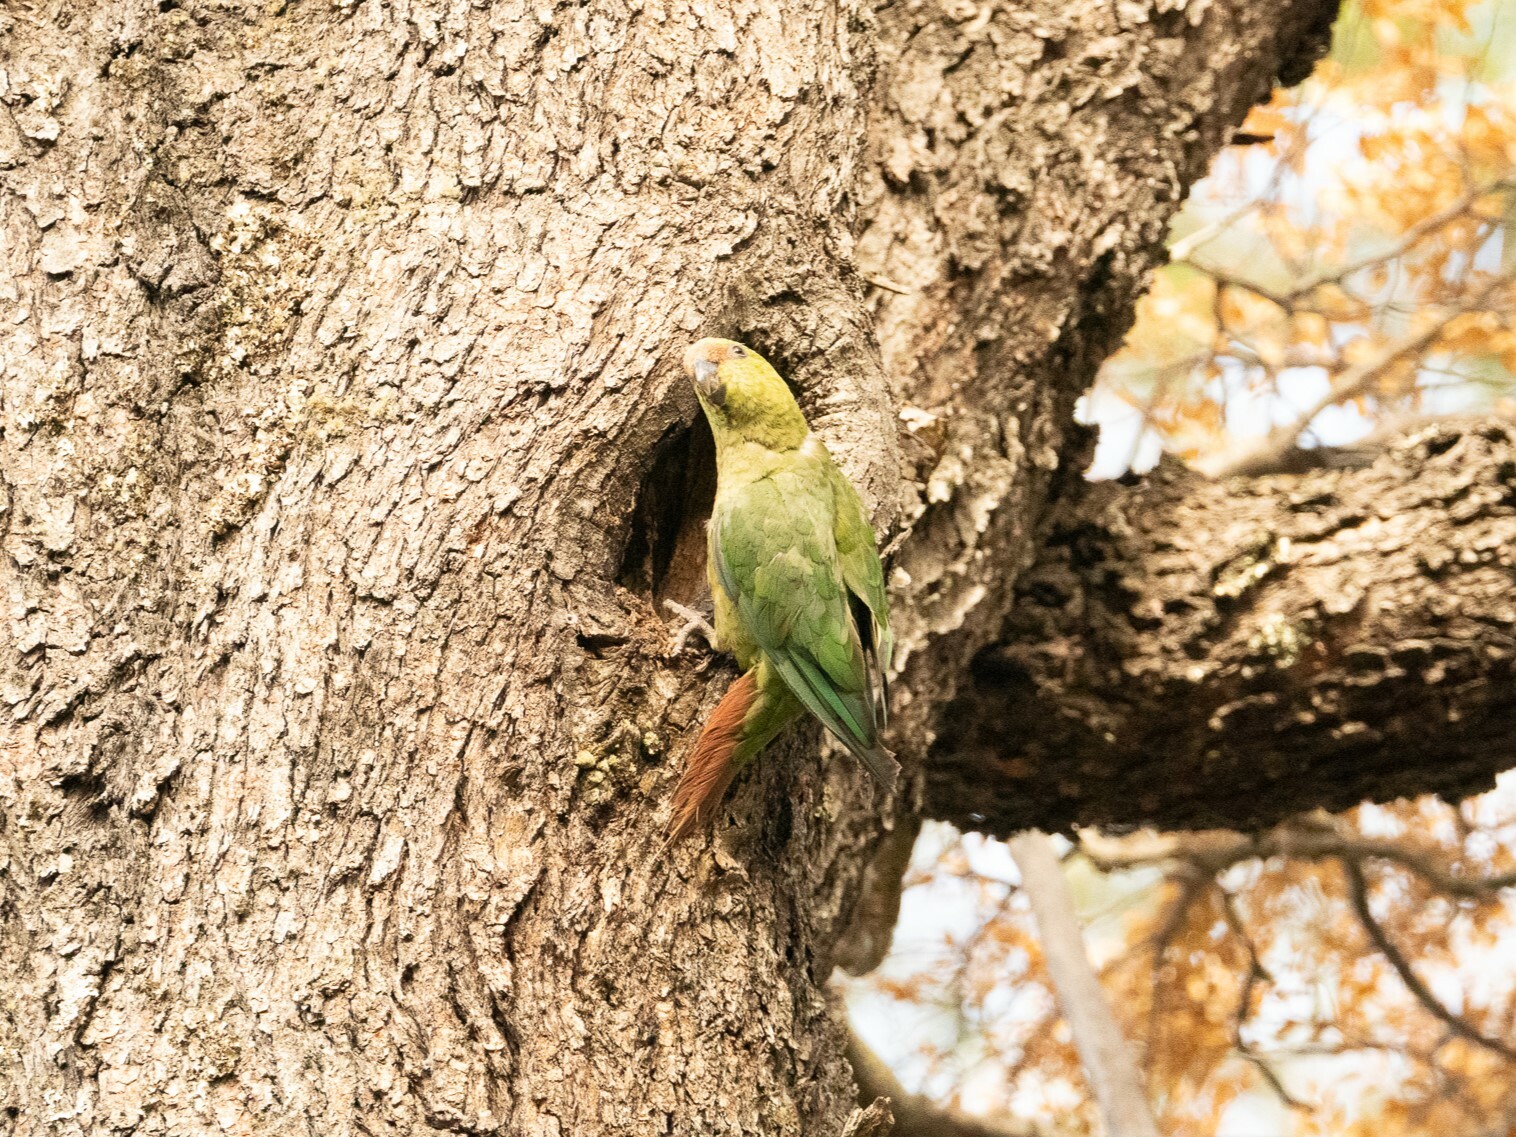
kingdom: Animalia
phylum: Chordata
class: Aves
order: Psittaciformes
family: Psittacidae
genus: Enicognathus
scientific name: Enicognathus ferrugineus
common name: Austral parakeet
